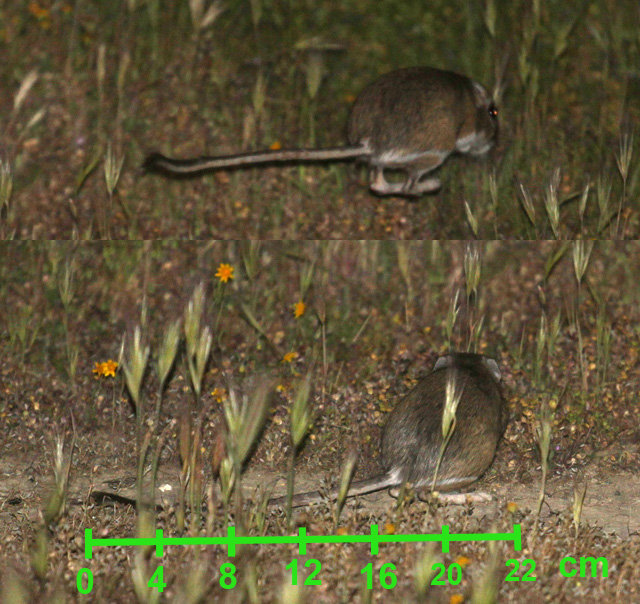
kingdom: Animalia
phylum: Chordata
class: Mammalia
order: Rodentia
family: Heteromyidae
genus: Dipodomys
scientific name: Dipodomys ingens
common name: Giant kangaroo rat
